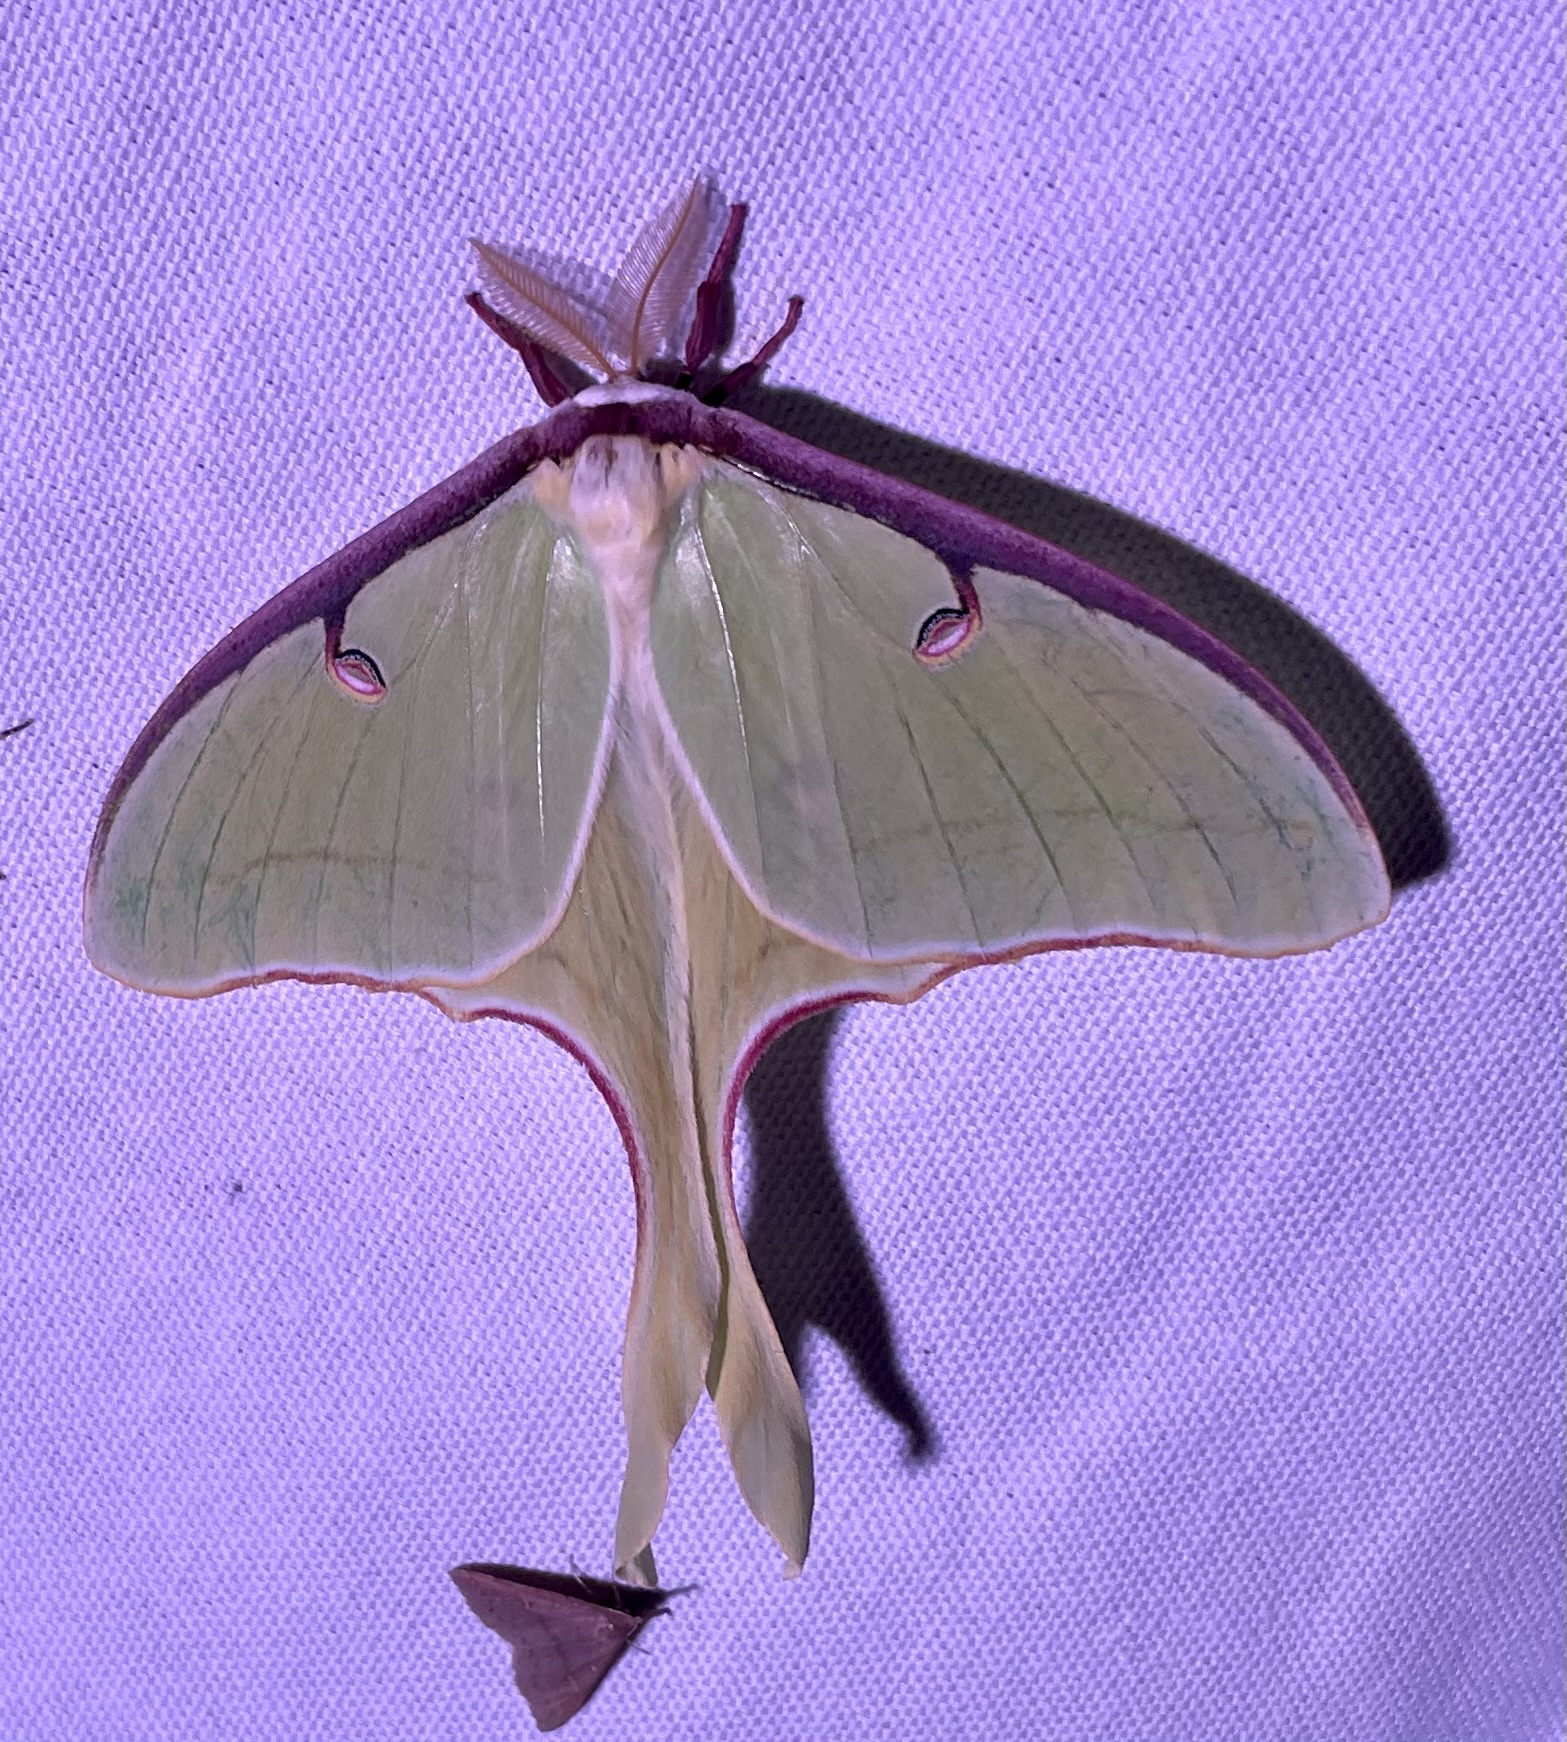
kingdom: Animalia
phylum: Arthropoda
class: Insecta
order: Lepidoptera
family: Saturniidae
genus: Actias
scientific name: Actias luna
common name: Luna moth
